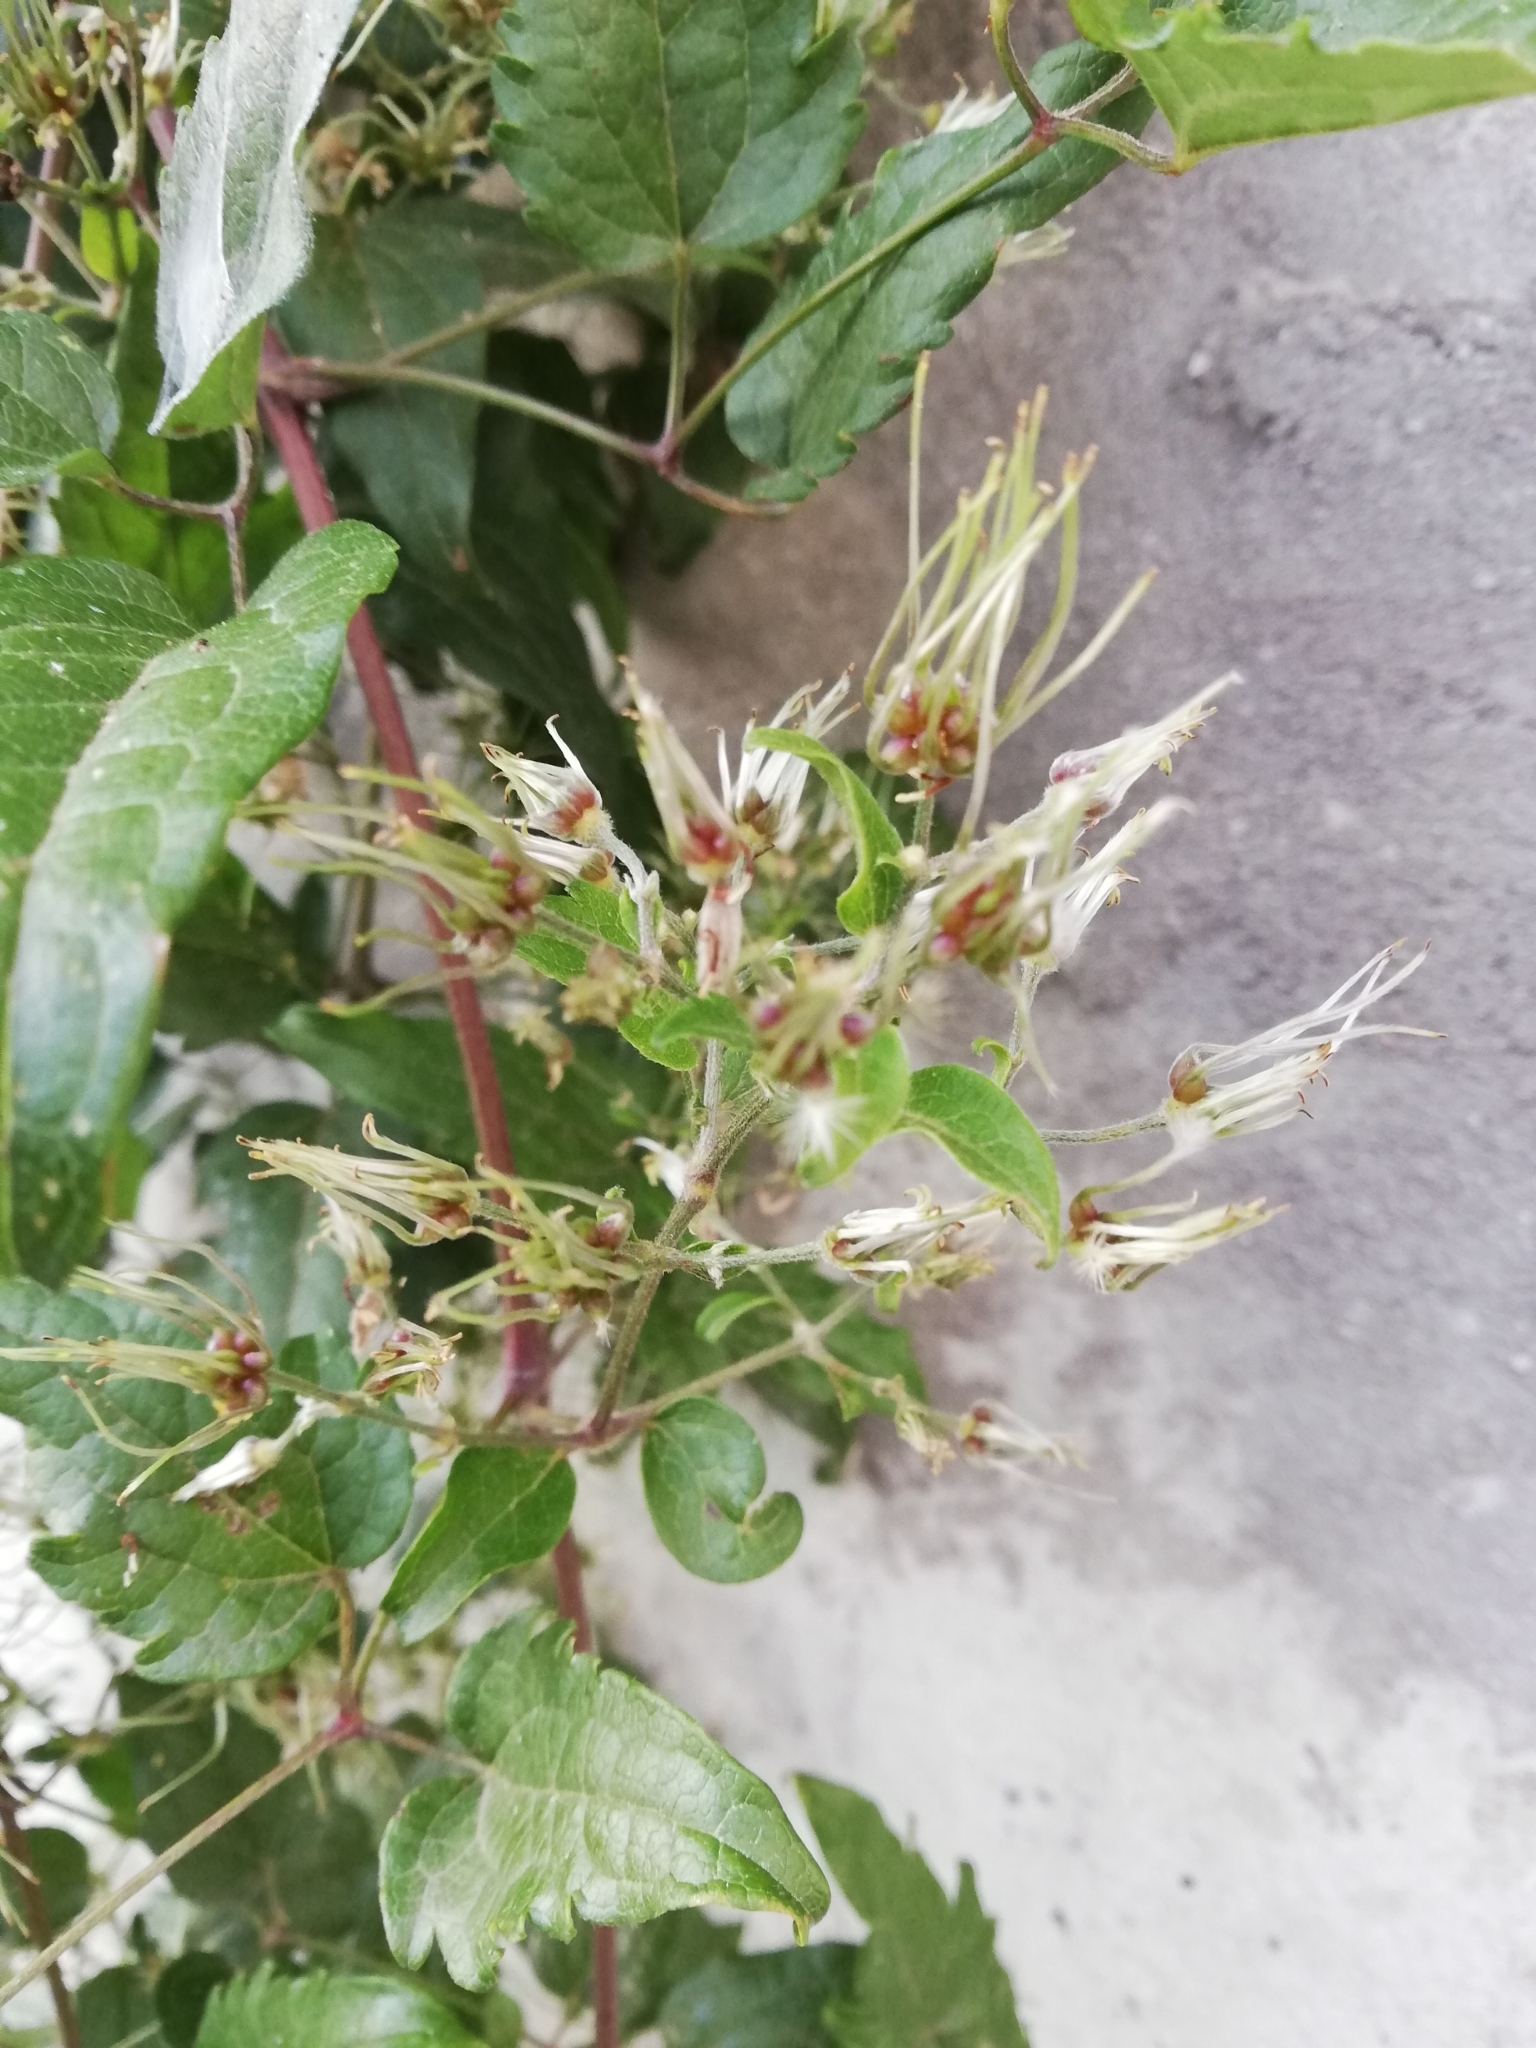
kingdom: Plantae
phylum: Tracheophyta
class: Magnoliopsida
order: Ranunculales
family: Ranunculaceae
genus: Clematis
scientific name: Clematis vitalba
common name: Evergreen clematis
